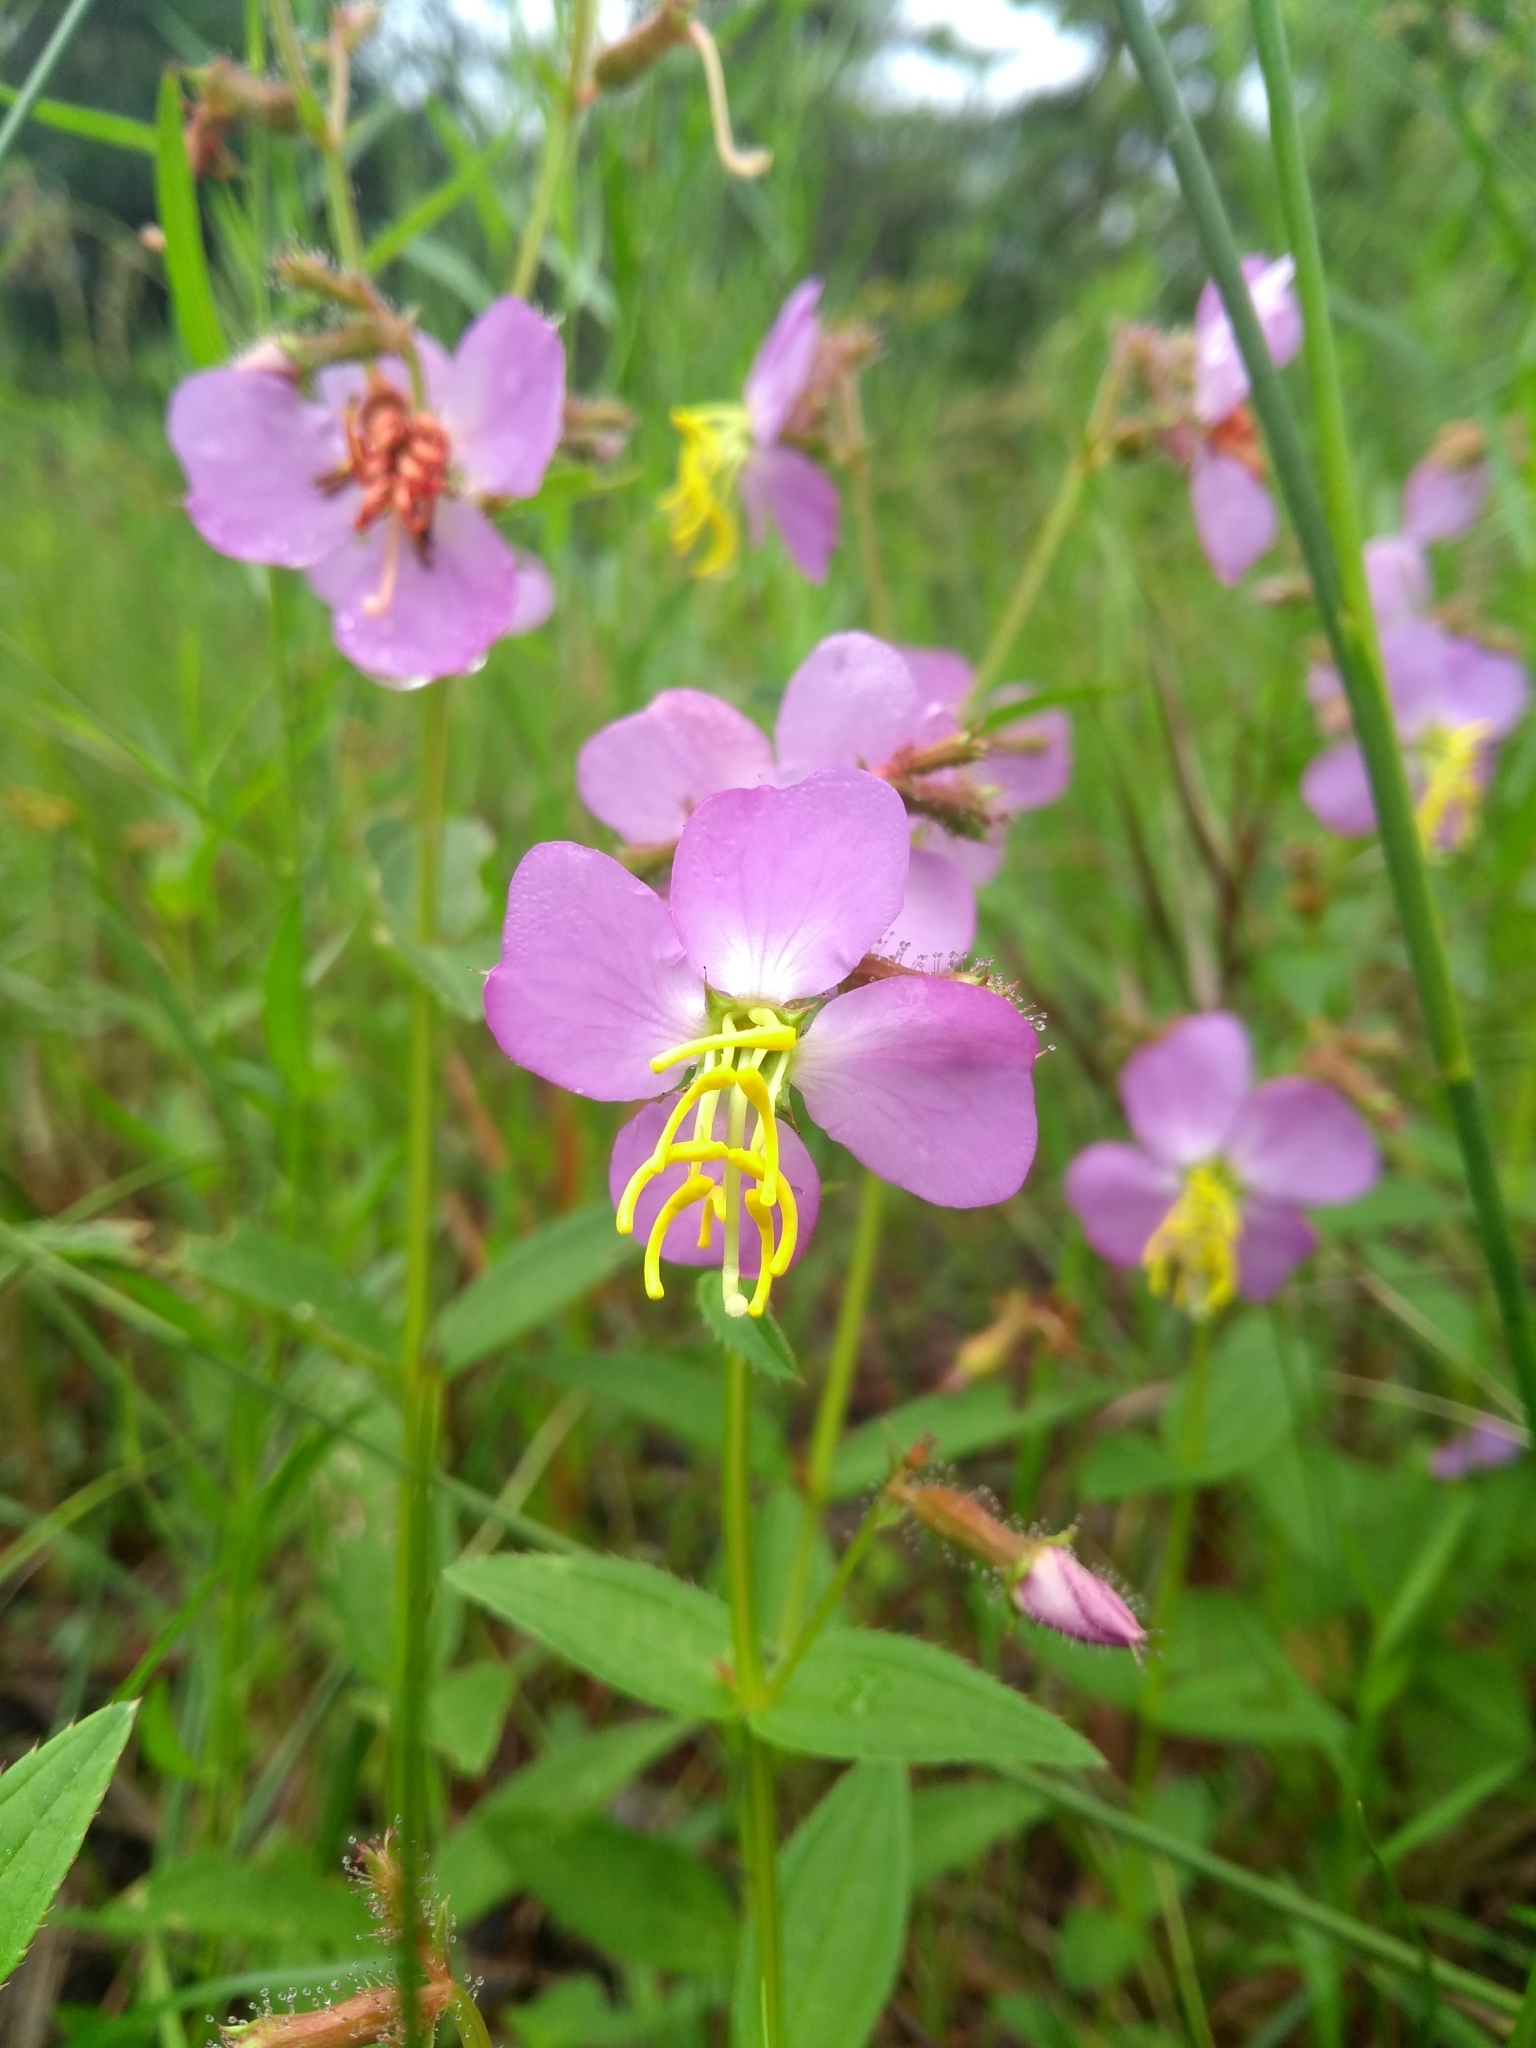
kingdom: Plantae
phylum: Tracheophyta
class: Magnoliopsida
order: Myrtales
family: Melastomataceae
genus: Rhexia
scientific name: Rhexia virginica
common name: Common meadow beauty
